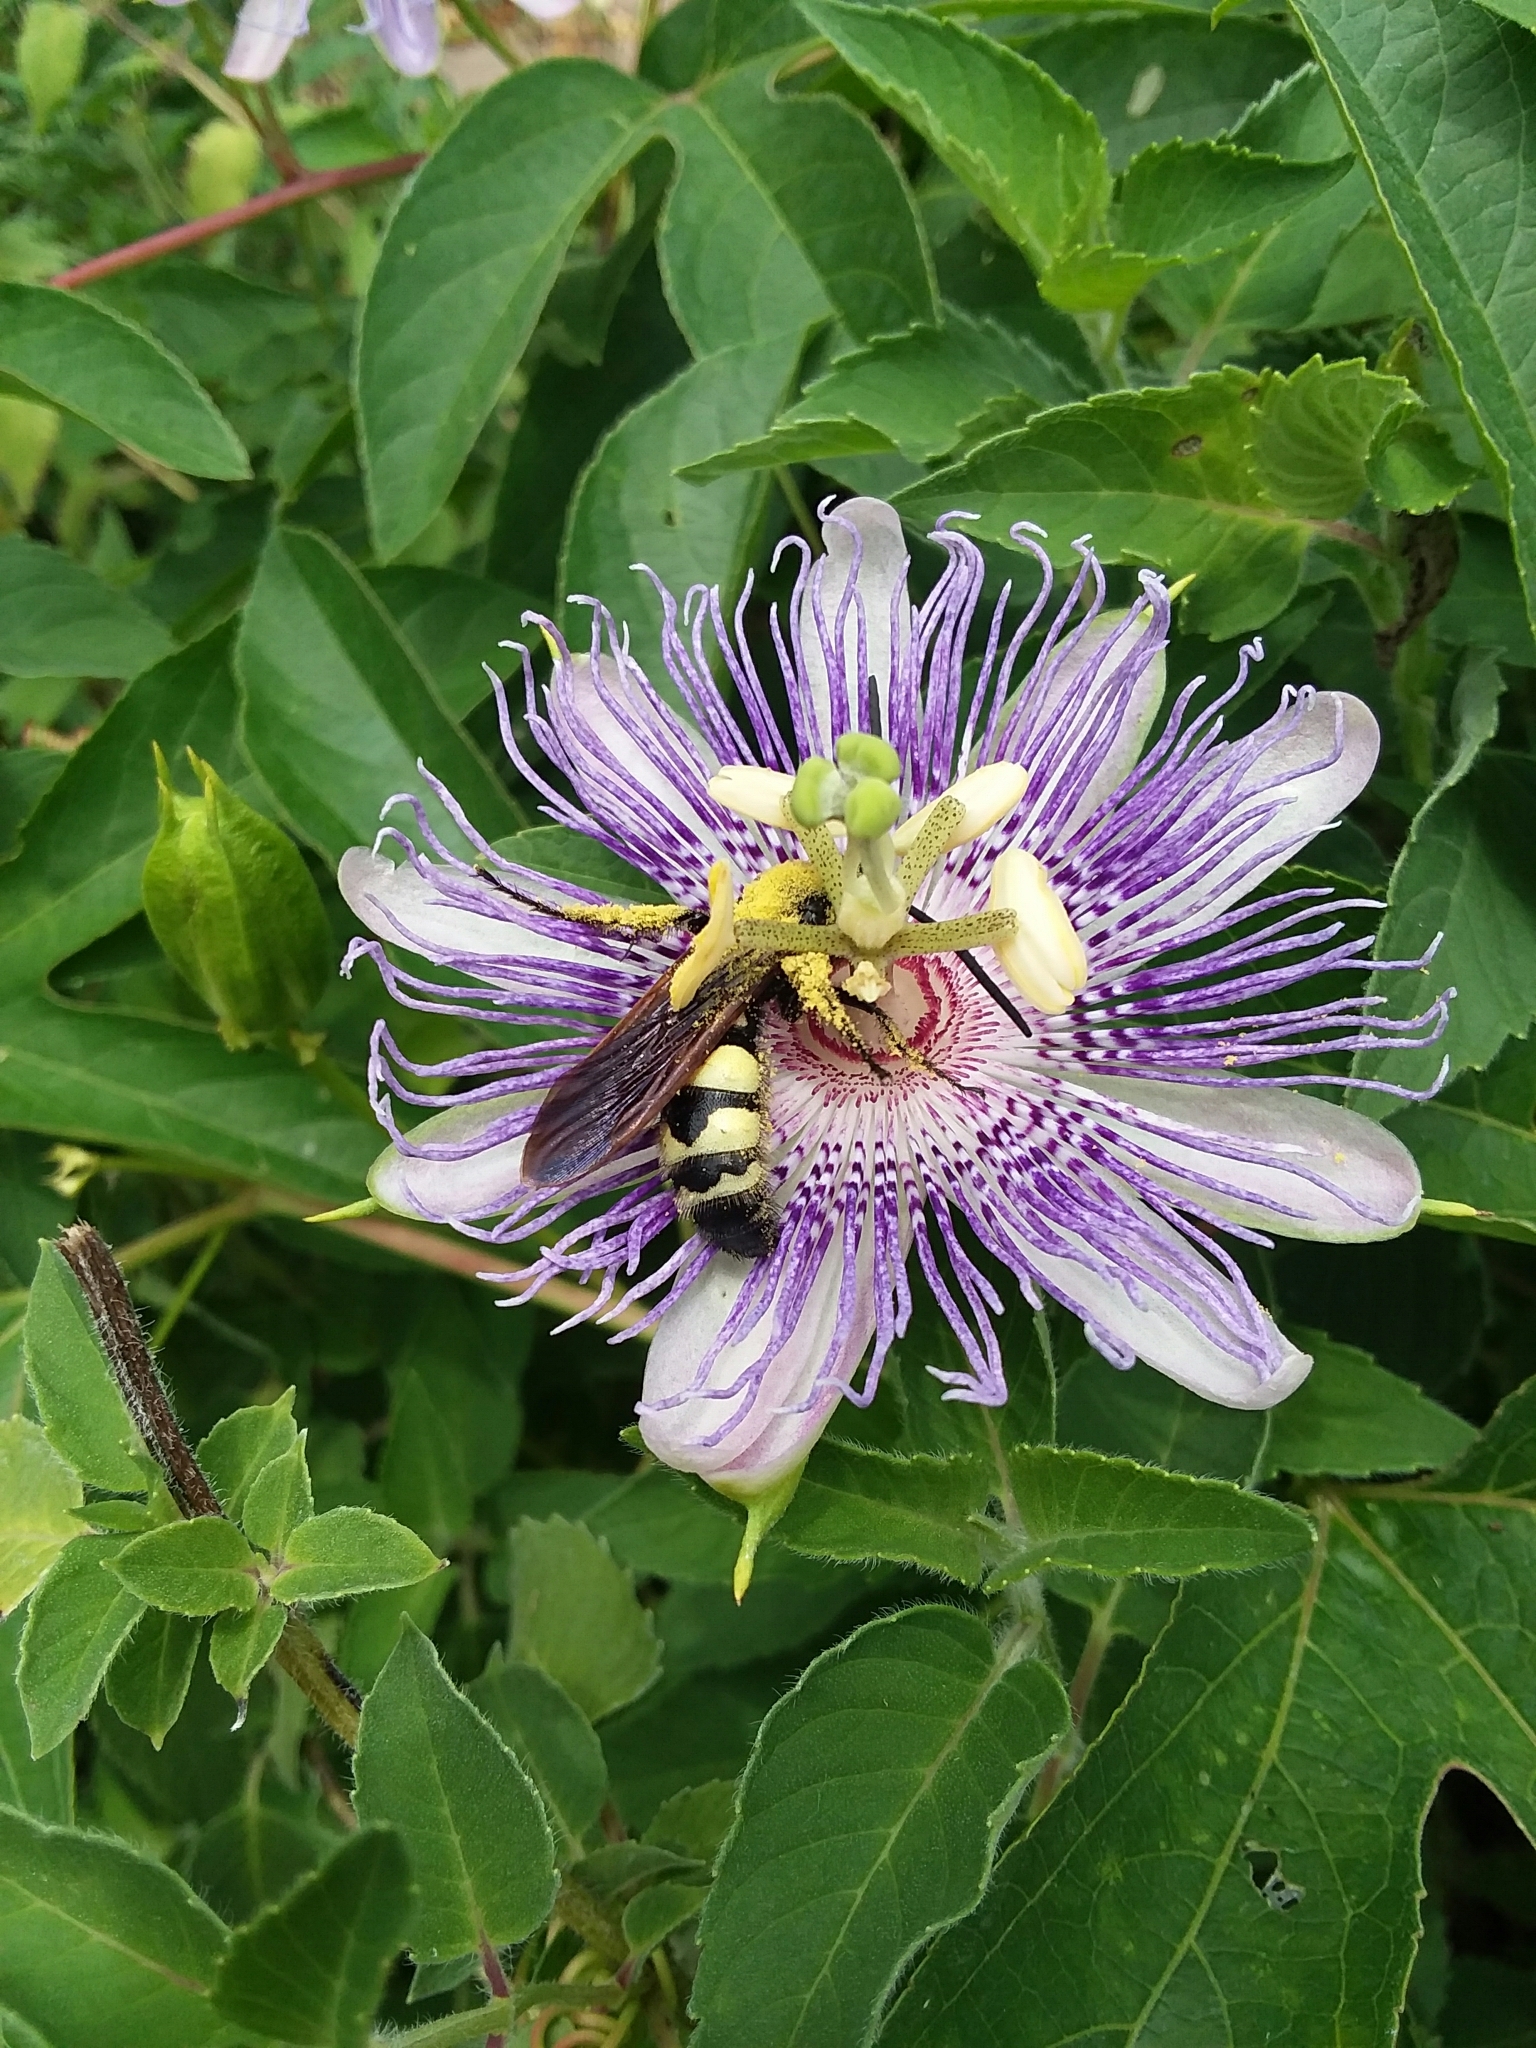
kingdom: Animalia
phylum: Arthropoda
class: Insecta
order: Hymenoptera
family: Scoliidae
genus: Pygodasis
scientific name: Pygodasis
